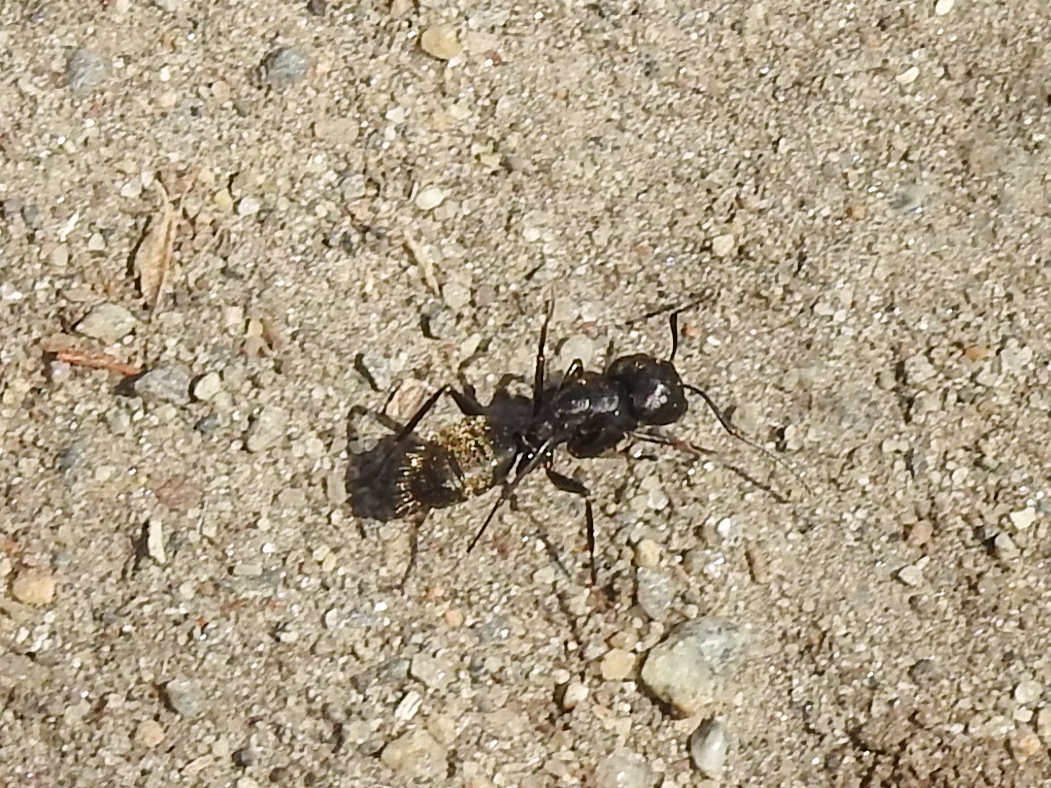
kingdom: Animalia
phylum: Arthropoda
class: Insecta
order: Hymenoptera
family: Formicidae
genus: Camponotus
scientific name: Camponotus pennsylvanicus
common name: Black carpenter ant
